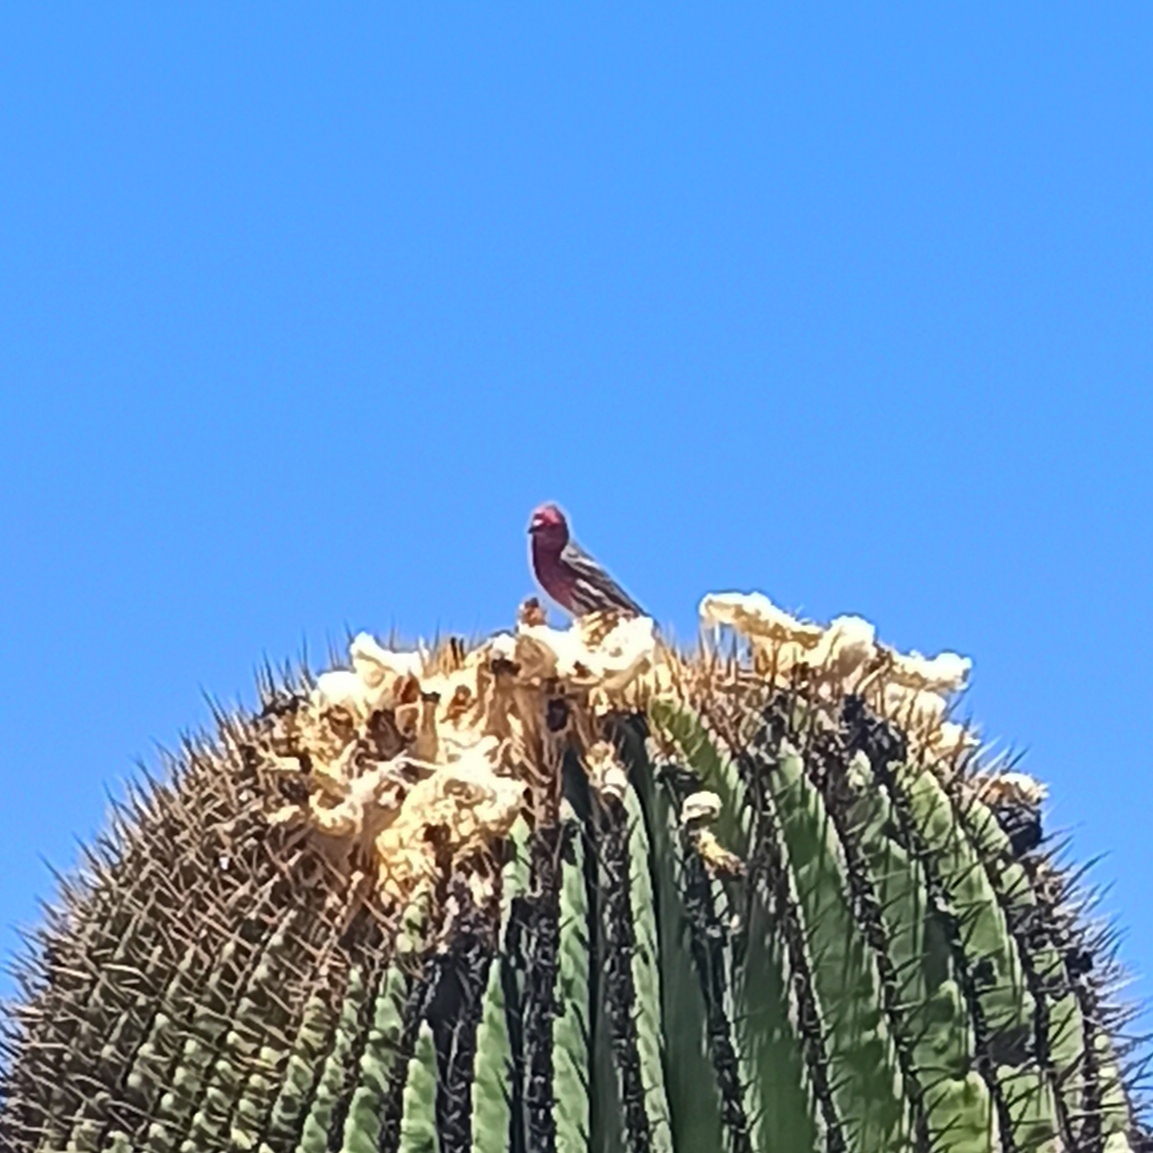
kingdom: Animalia
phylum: Chordata
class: Aves
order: Passeriformes
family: Fringillidae
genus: Haemorhous
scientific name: Haemorhous mexicanus
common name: House finch
